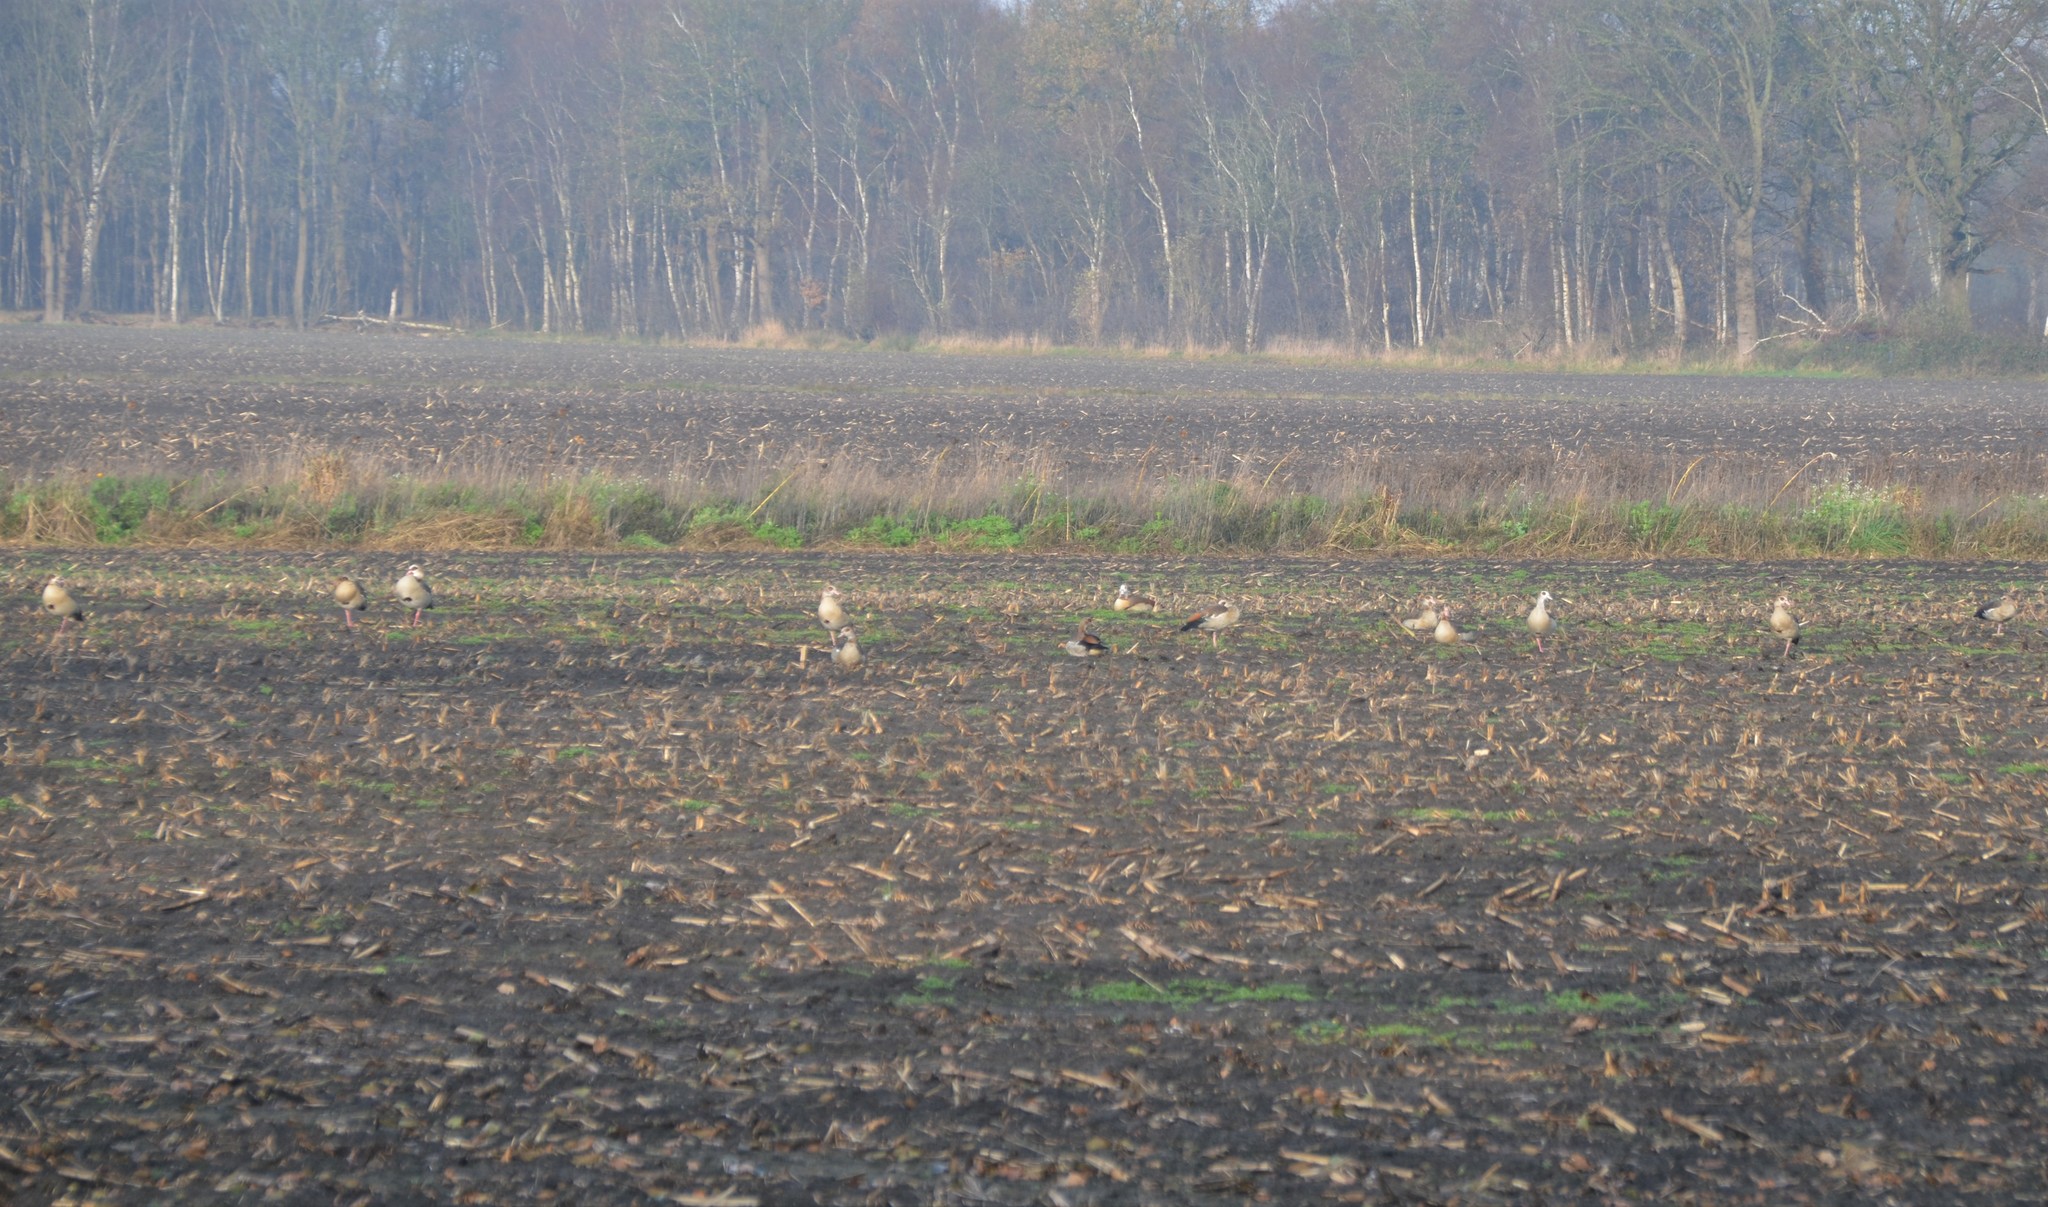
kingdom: Animalia
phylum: Chordata
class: Aves
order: Anseriformes
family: Anatidae
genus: Alopochen
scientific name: Alopochen aegyptiaca
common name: Egyptian goose
